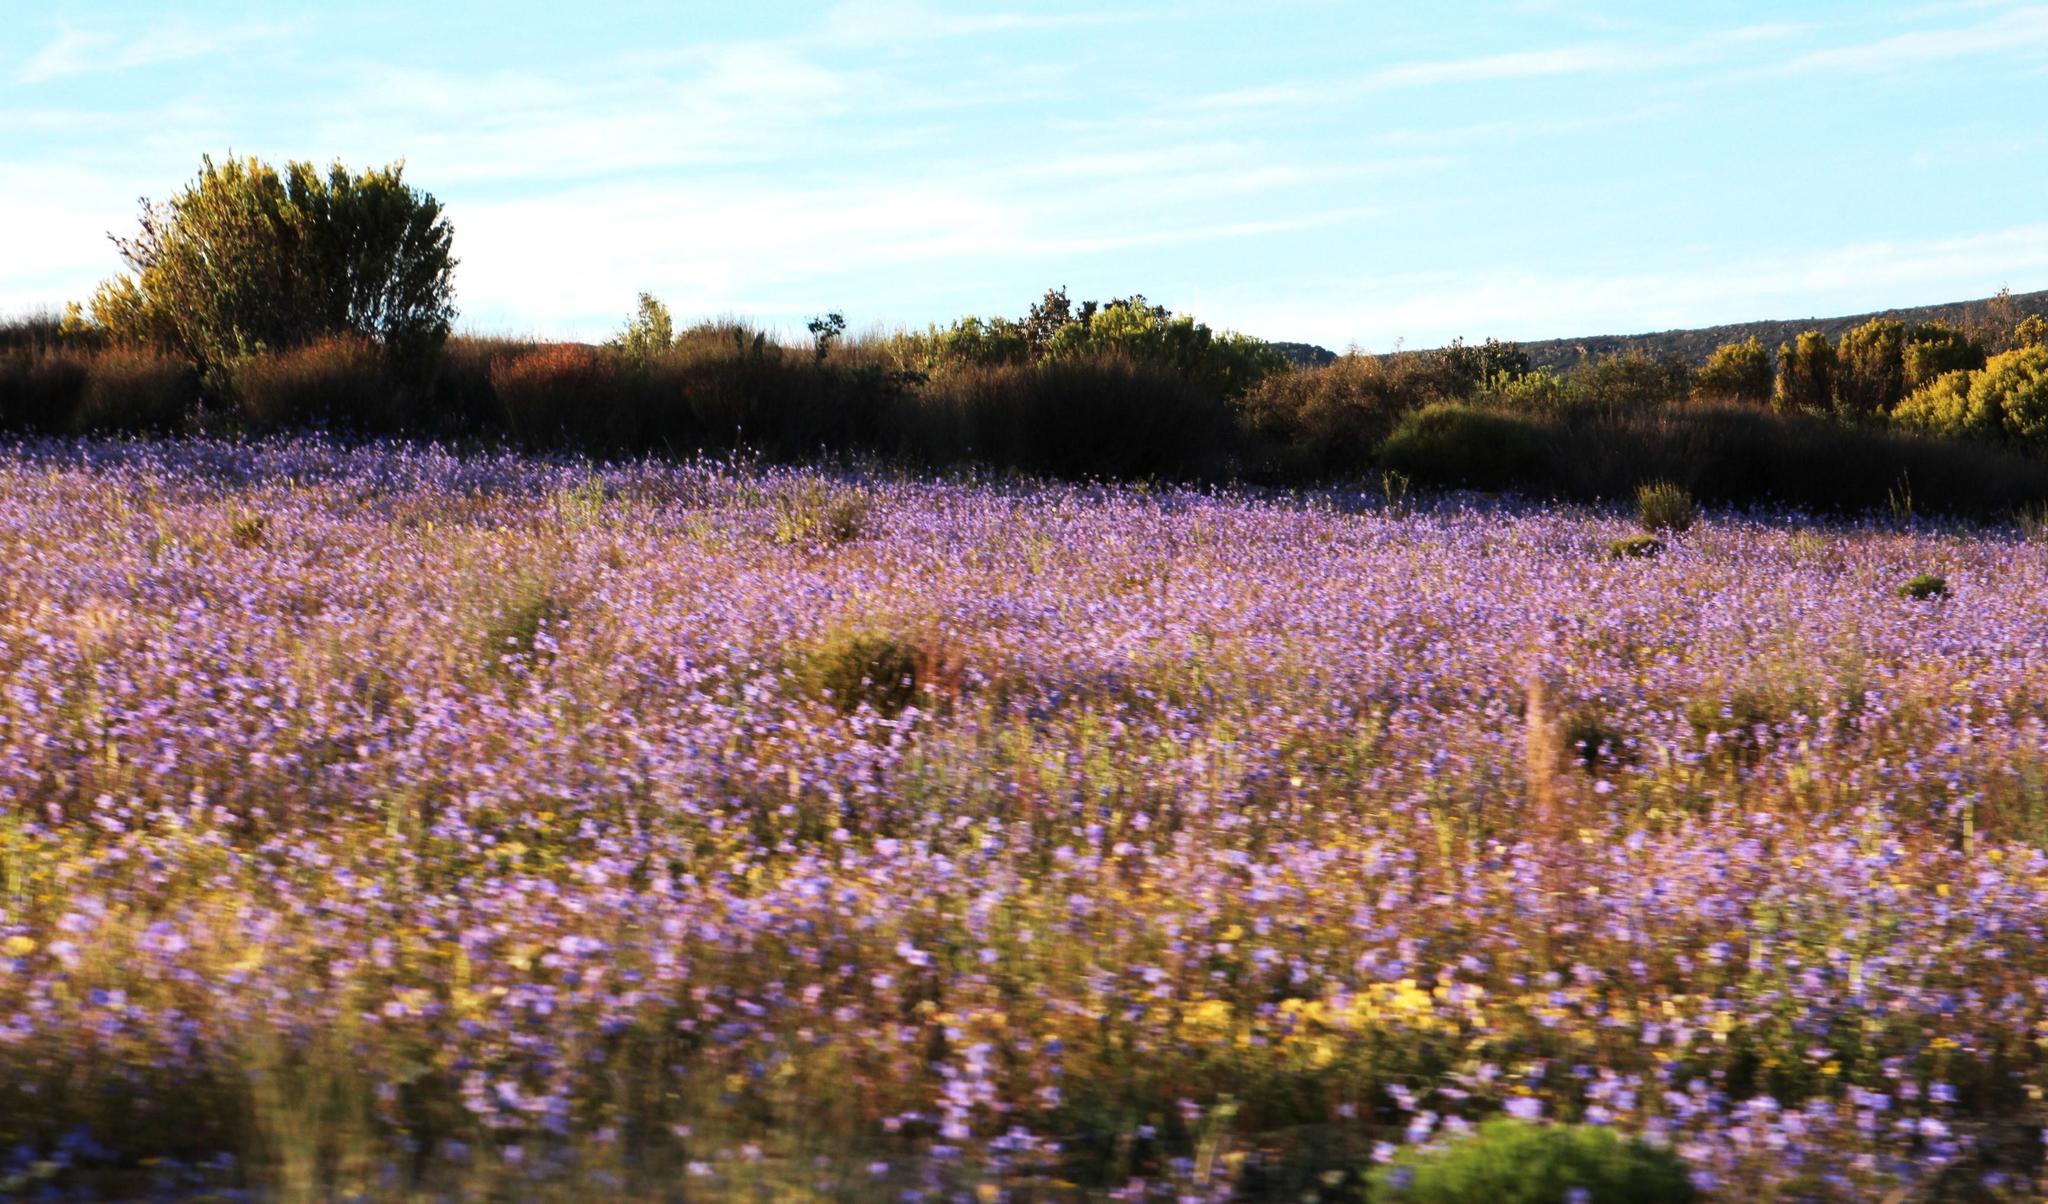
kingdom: Plantae
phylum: Tracheophyta
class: Magnoliopsida
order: Brassicales
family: Brassicaceae
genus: Heliophila
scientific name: Heliophila africana
